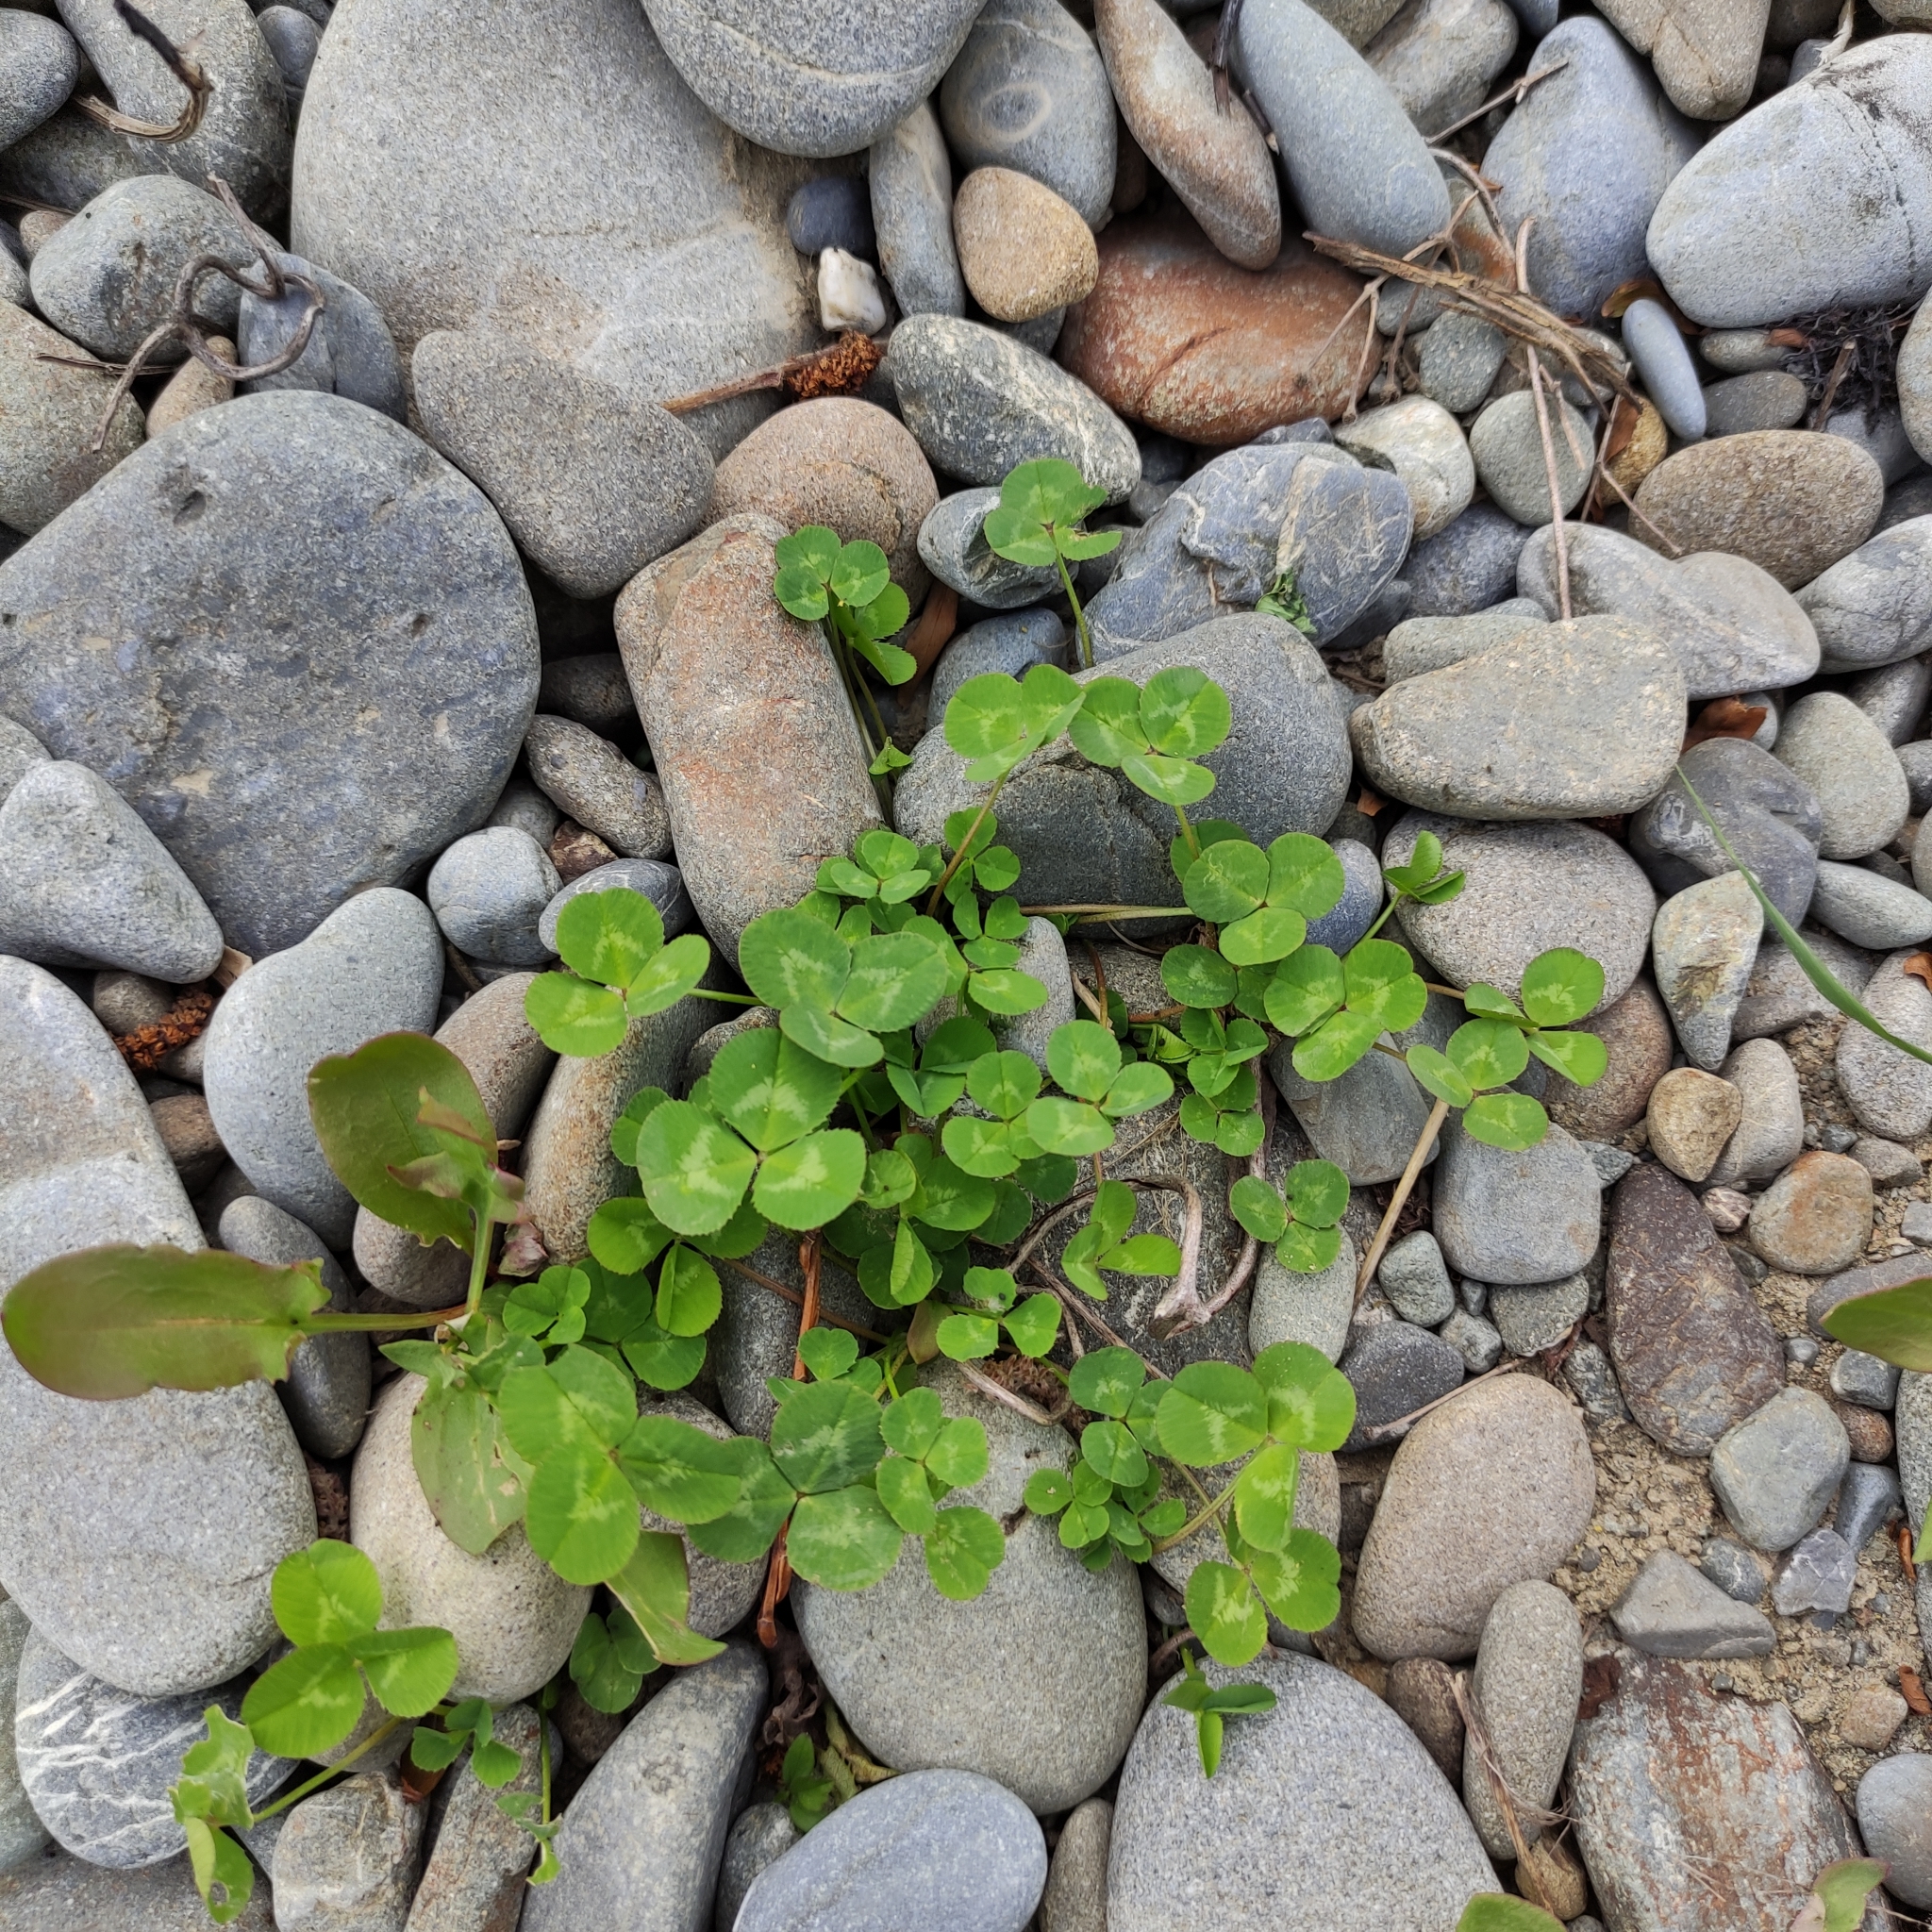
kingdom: Plantae
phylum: Tracheophyta
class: Magnoliopsida
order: Fabales
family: Fabaceae
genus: Trifolium
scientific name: Trifolium repens
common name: White clover
